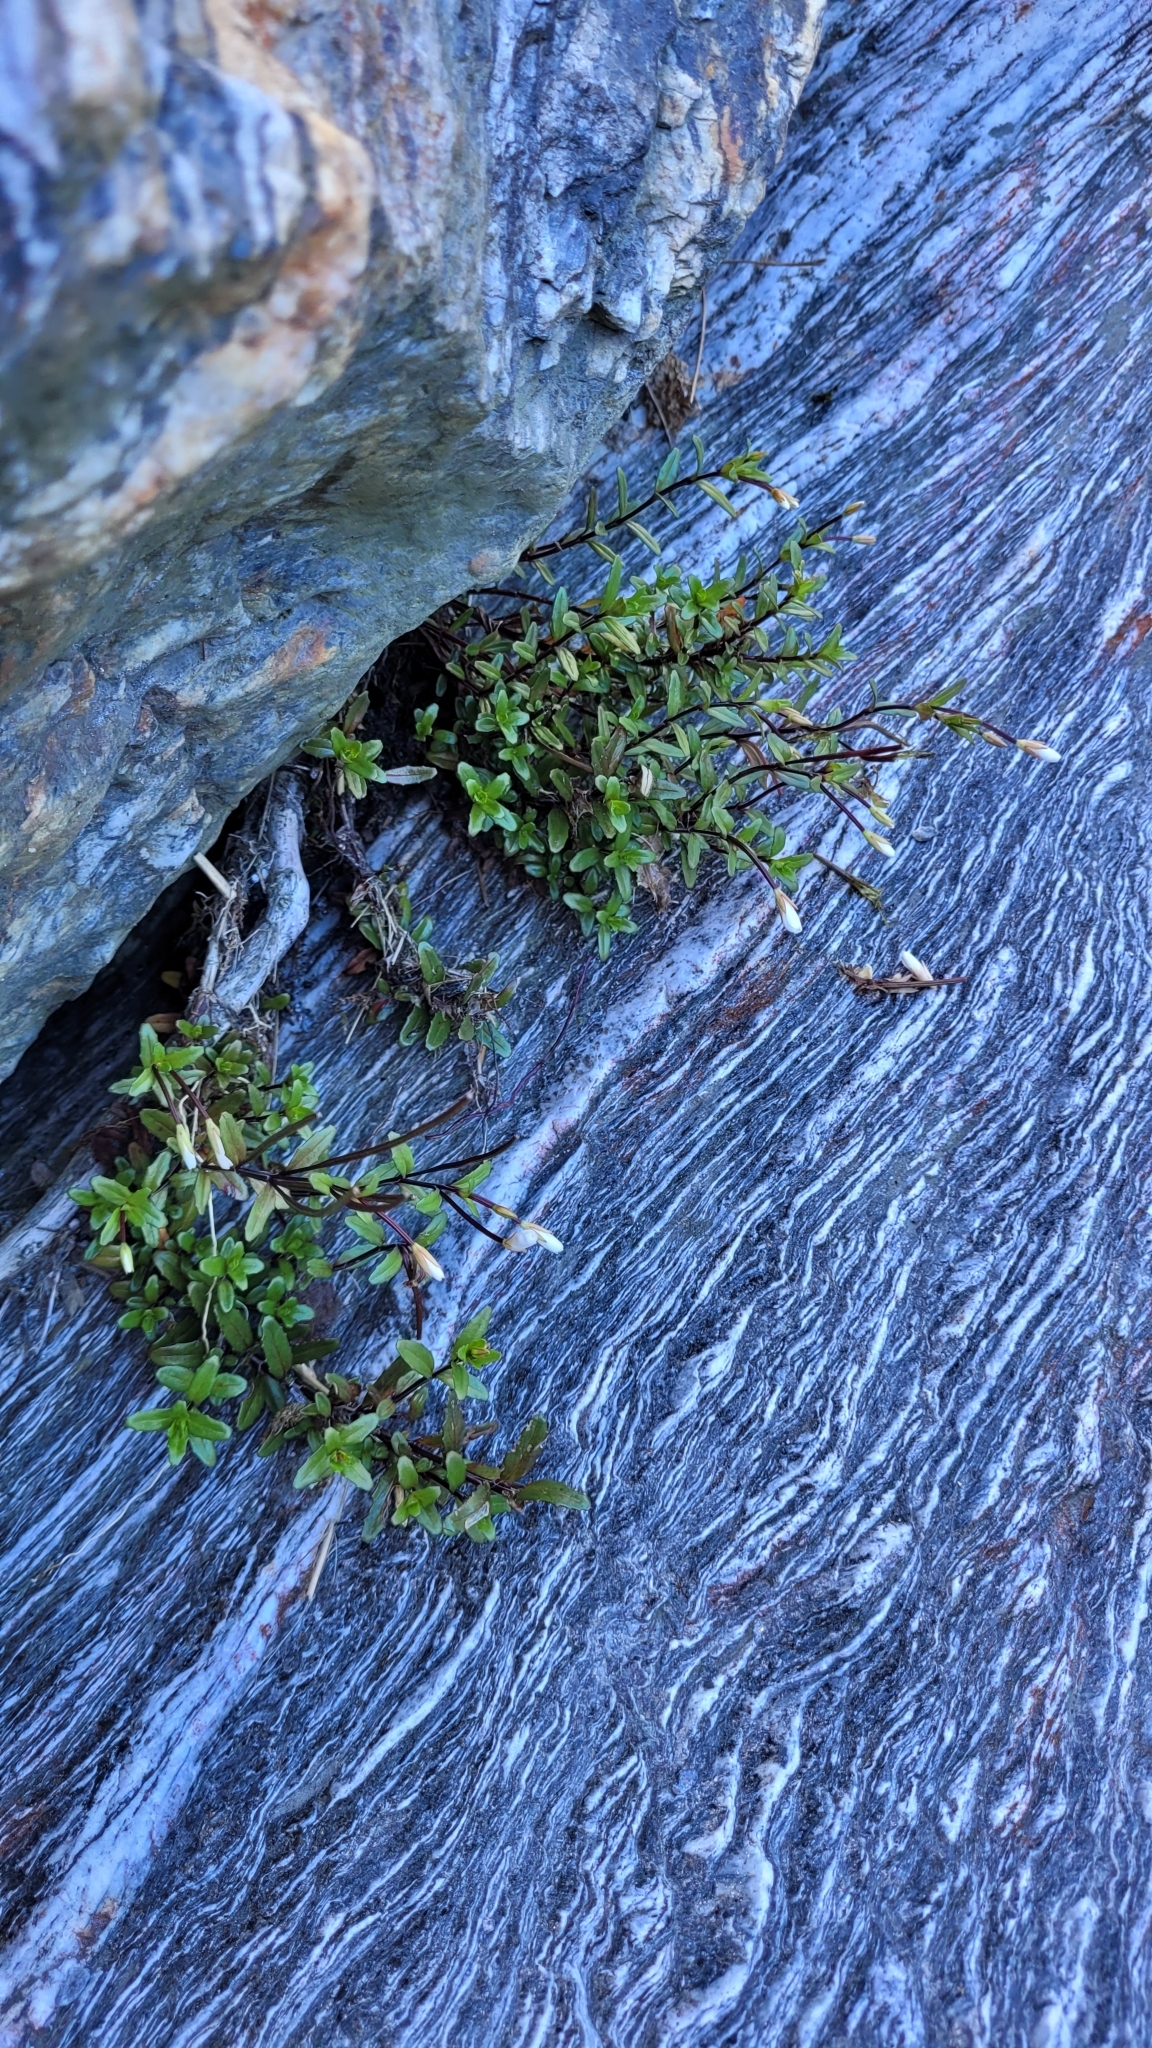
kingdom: Plantae
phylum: Tracheophyta
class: Magnoliopsida
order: Myrtales
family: Onagraceae
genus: Epilobium
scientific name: Epilobium glabellum
